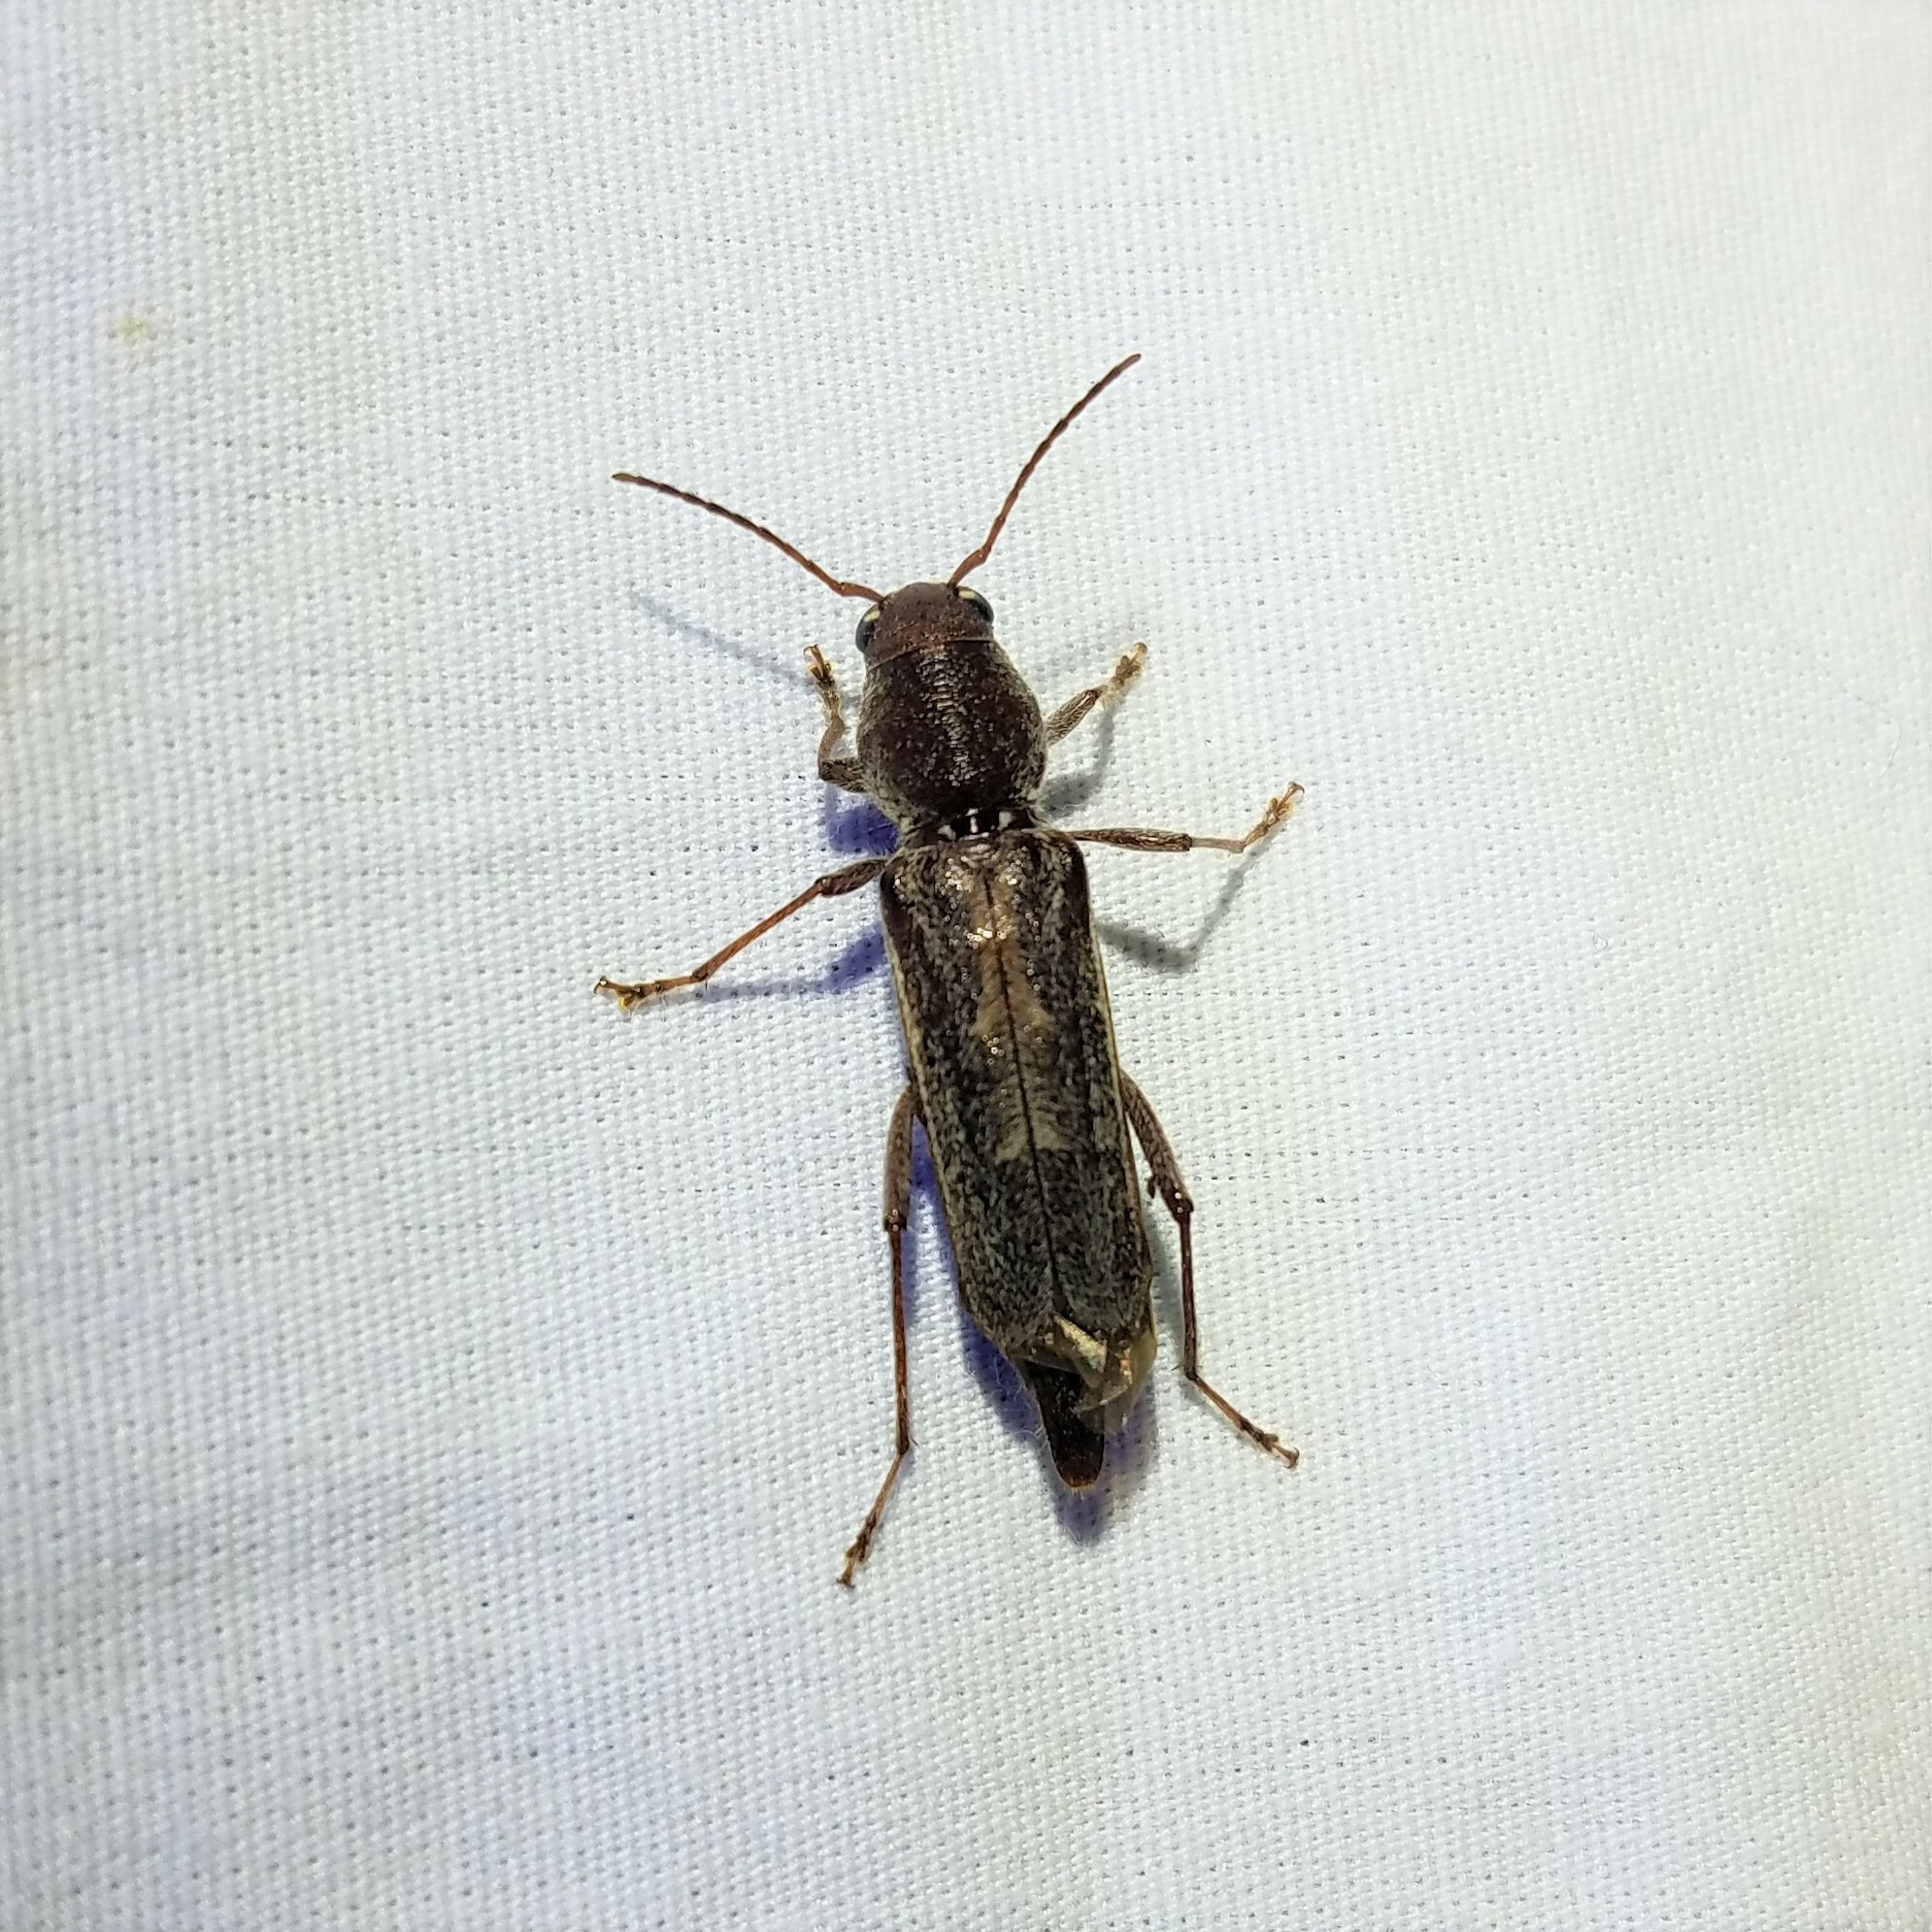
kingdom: Animalia
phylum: Arthropoda
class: Insecta
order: Coleoptera
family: Cerambycidae
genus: Xylotrechus
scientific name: Xylotrechus sagittatus
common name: Arrowhead borer
